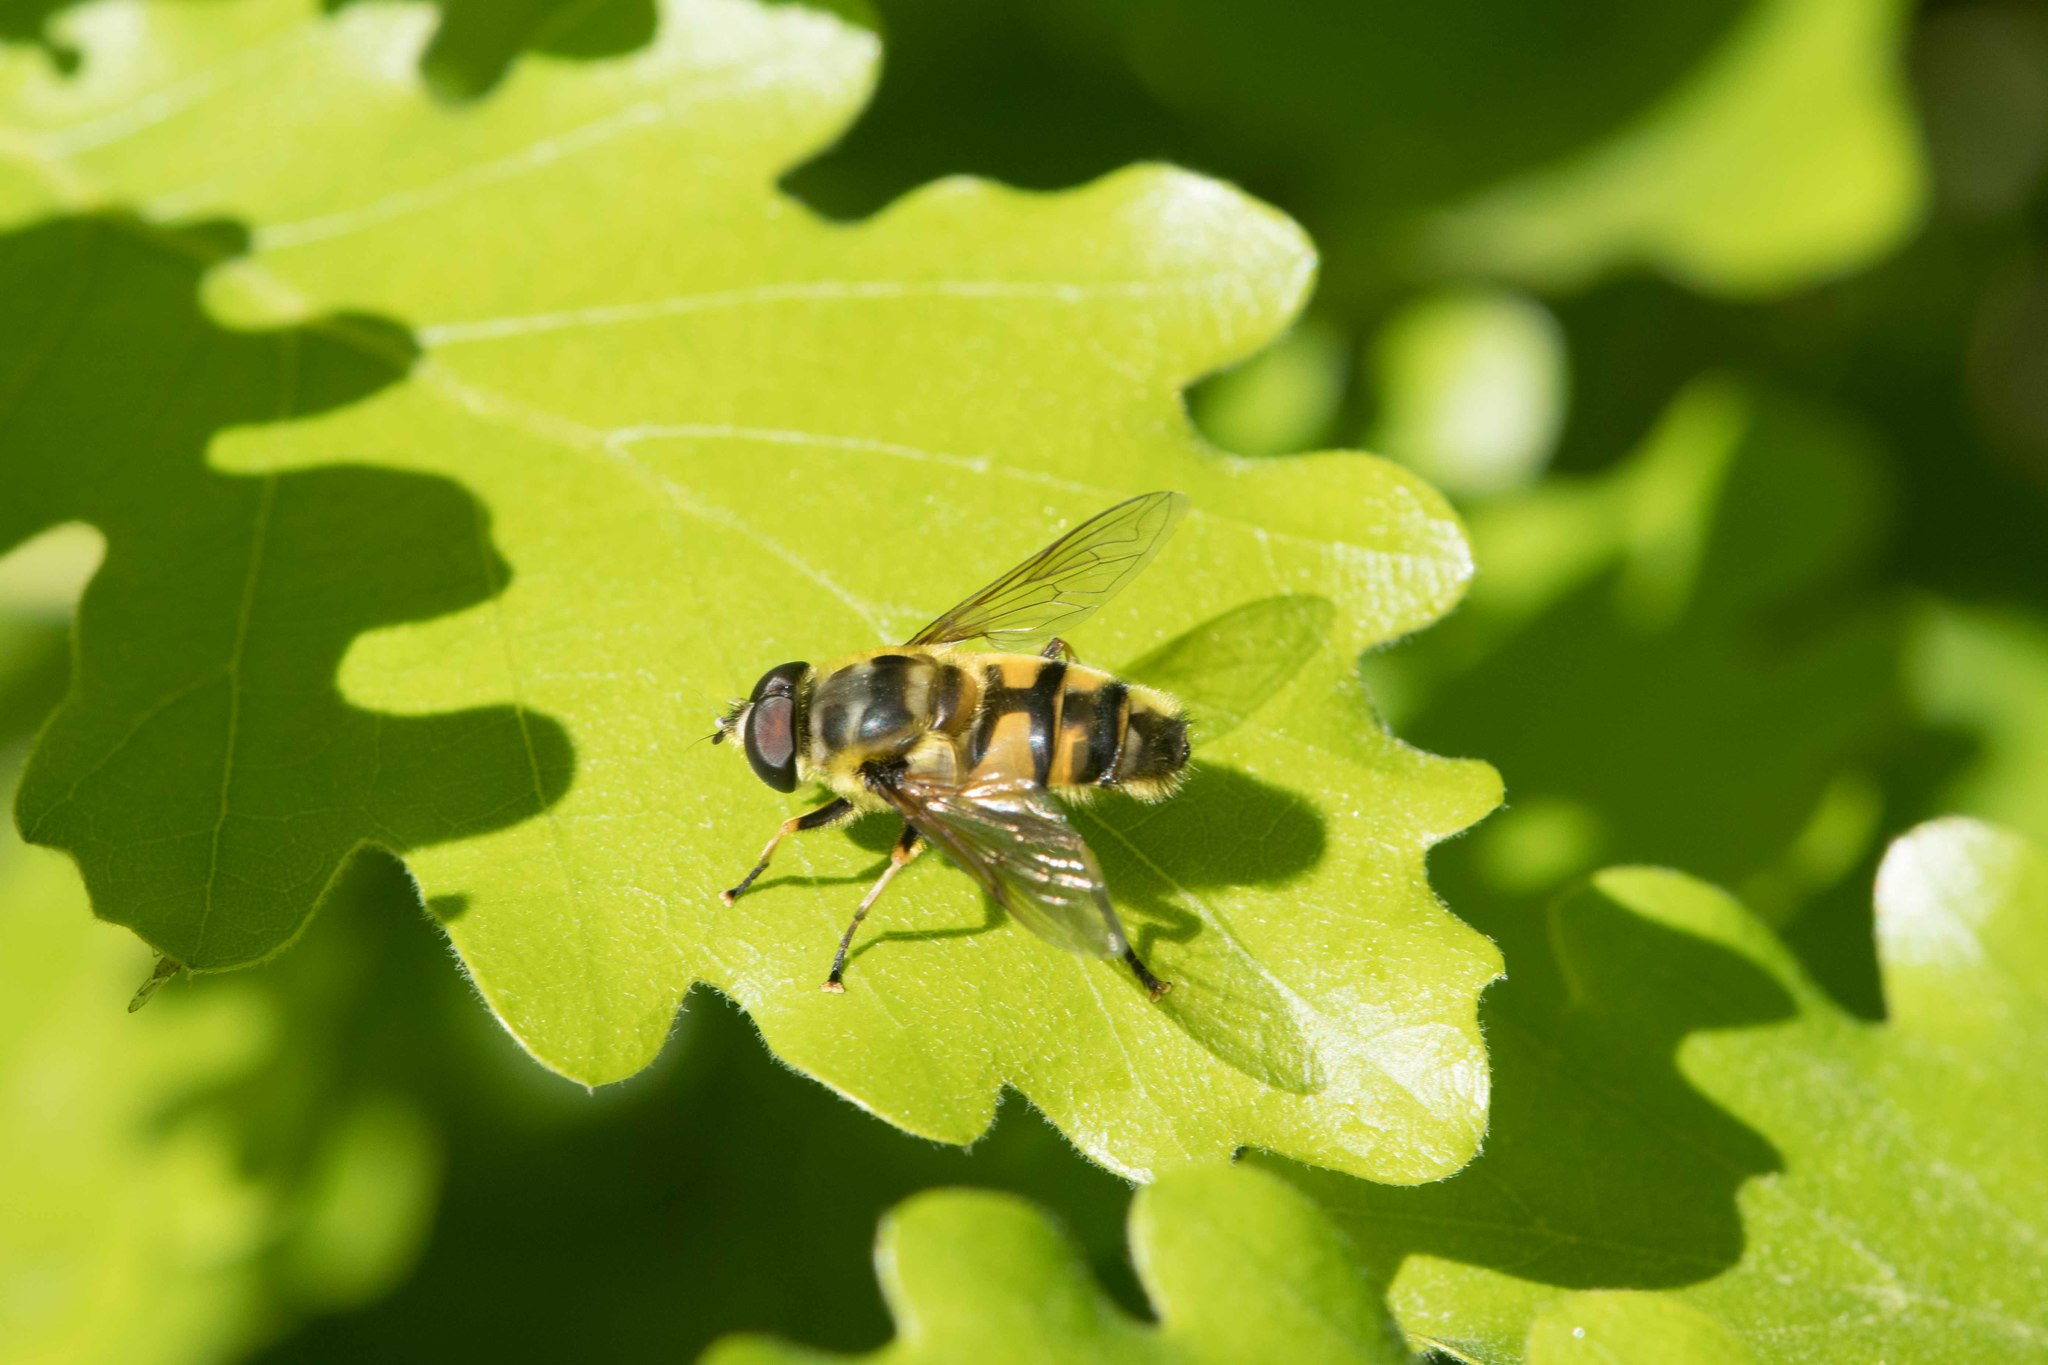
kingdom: Animalia
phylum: Arthropoda
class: Insecta
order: Diptera
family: Syrphidae
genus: Myathropa
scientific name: Myathropa florea
